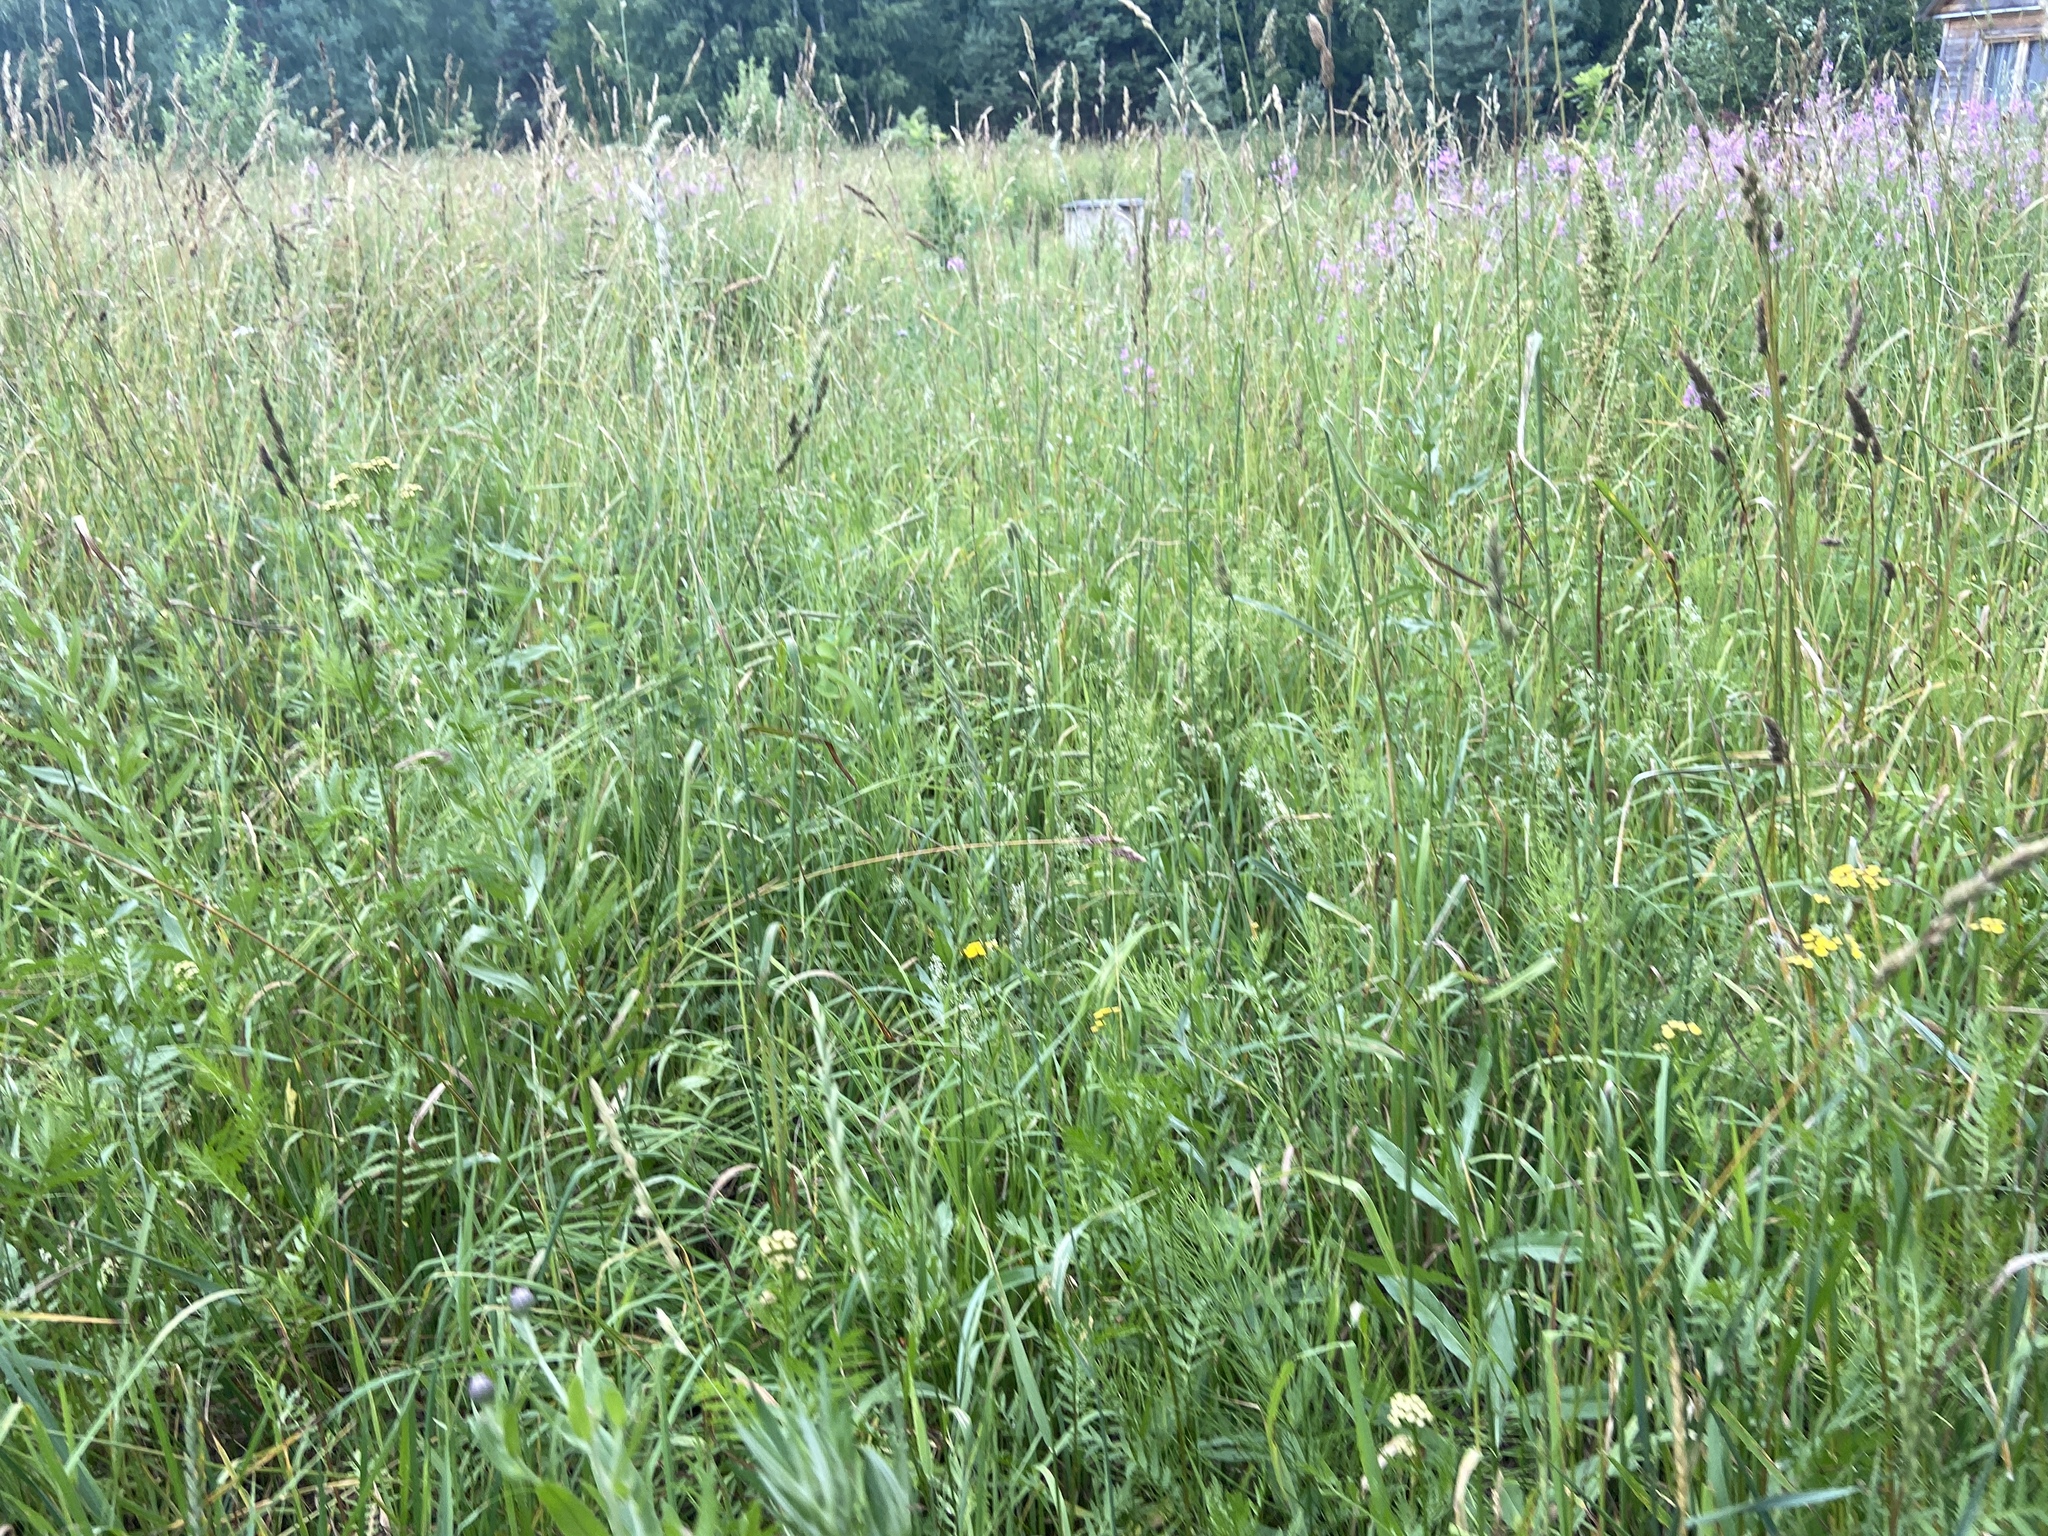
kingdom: Plantae
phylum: Tracheophyta
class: Liliopsida
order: Poales
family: Poaceae
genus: Dactylis
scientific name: Dactylis glomerata
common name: Orchardgrass
